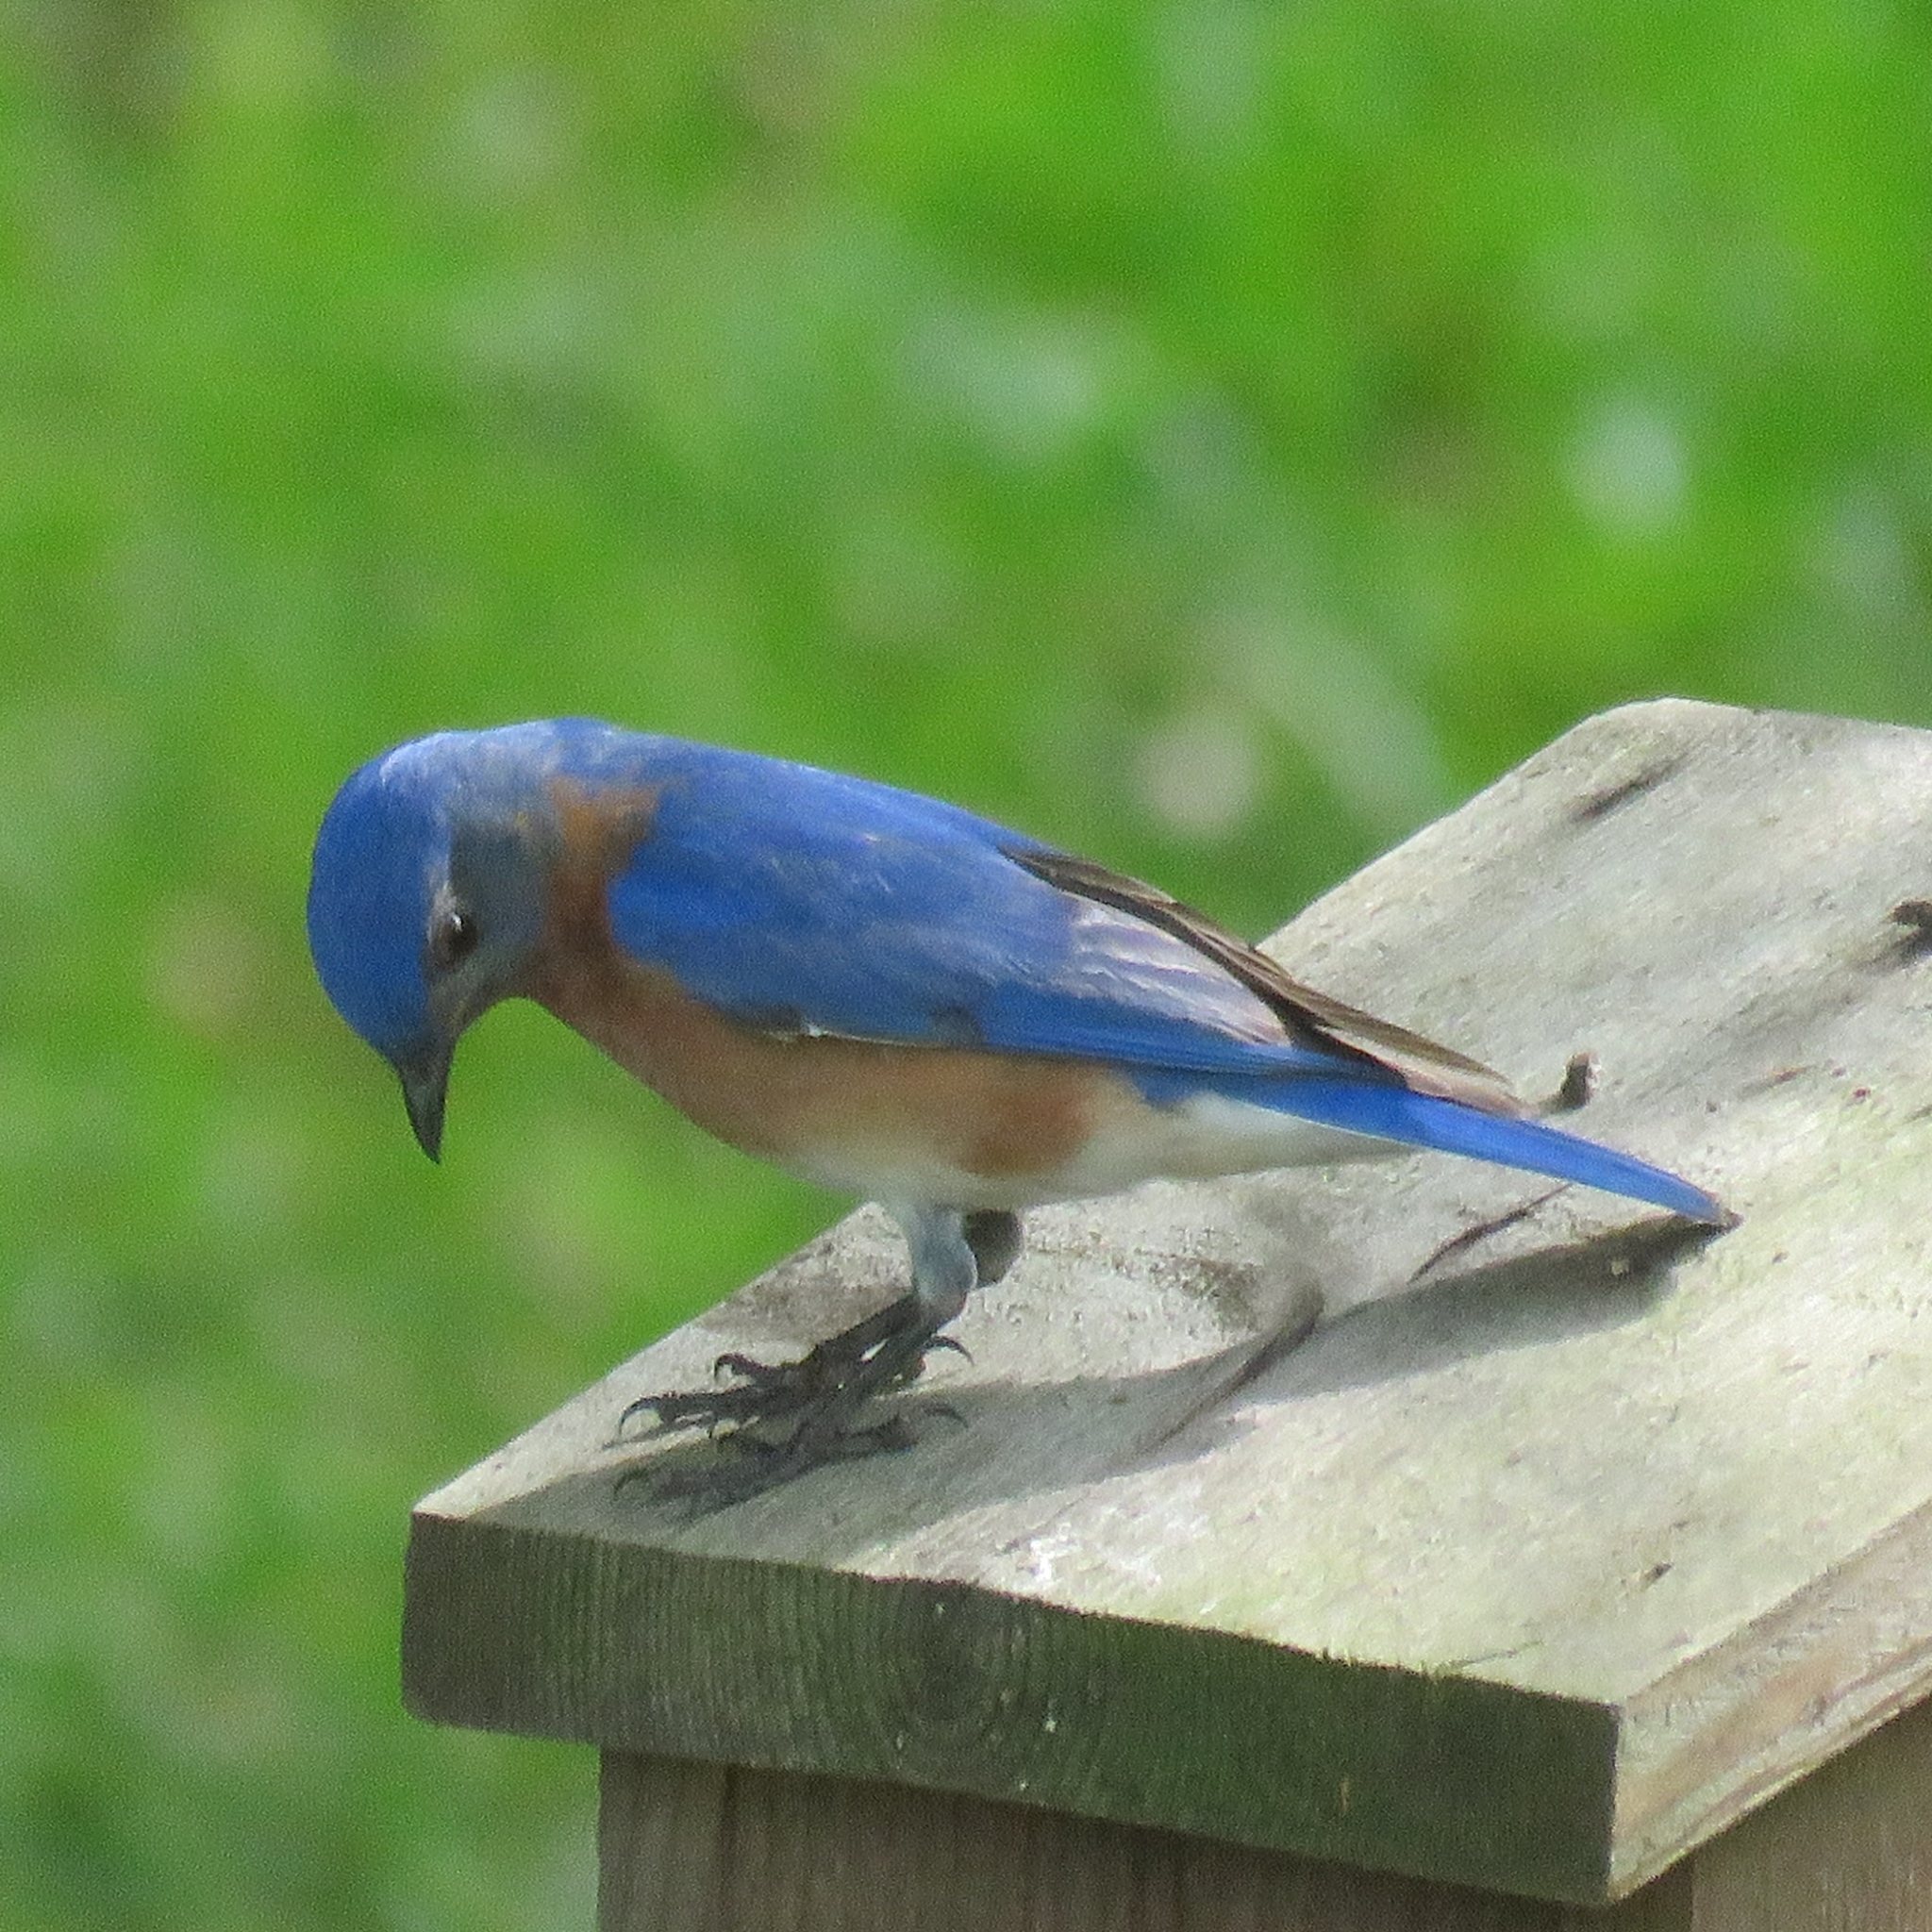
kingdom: Animalia
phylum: Chordata
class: Aves
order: Passeriformes
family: Turdidae
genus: Sialia
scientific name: Sialia sialis
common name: Eastern bluebird
